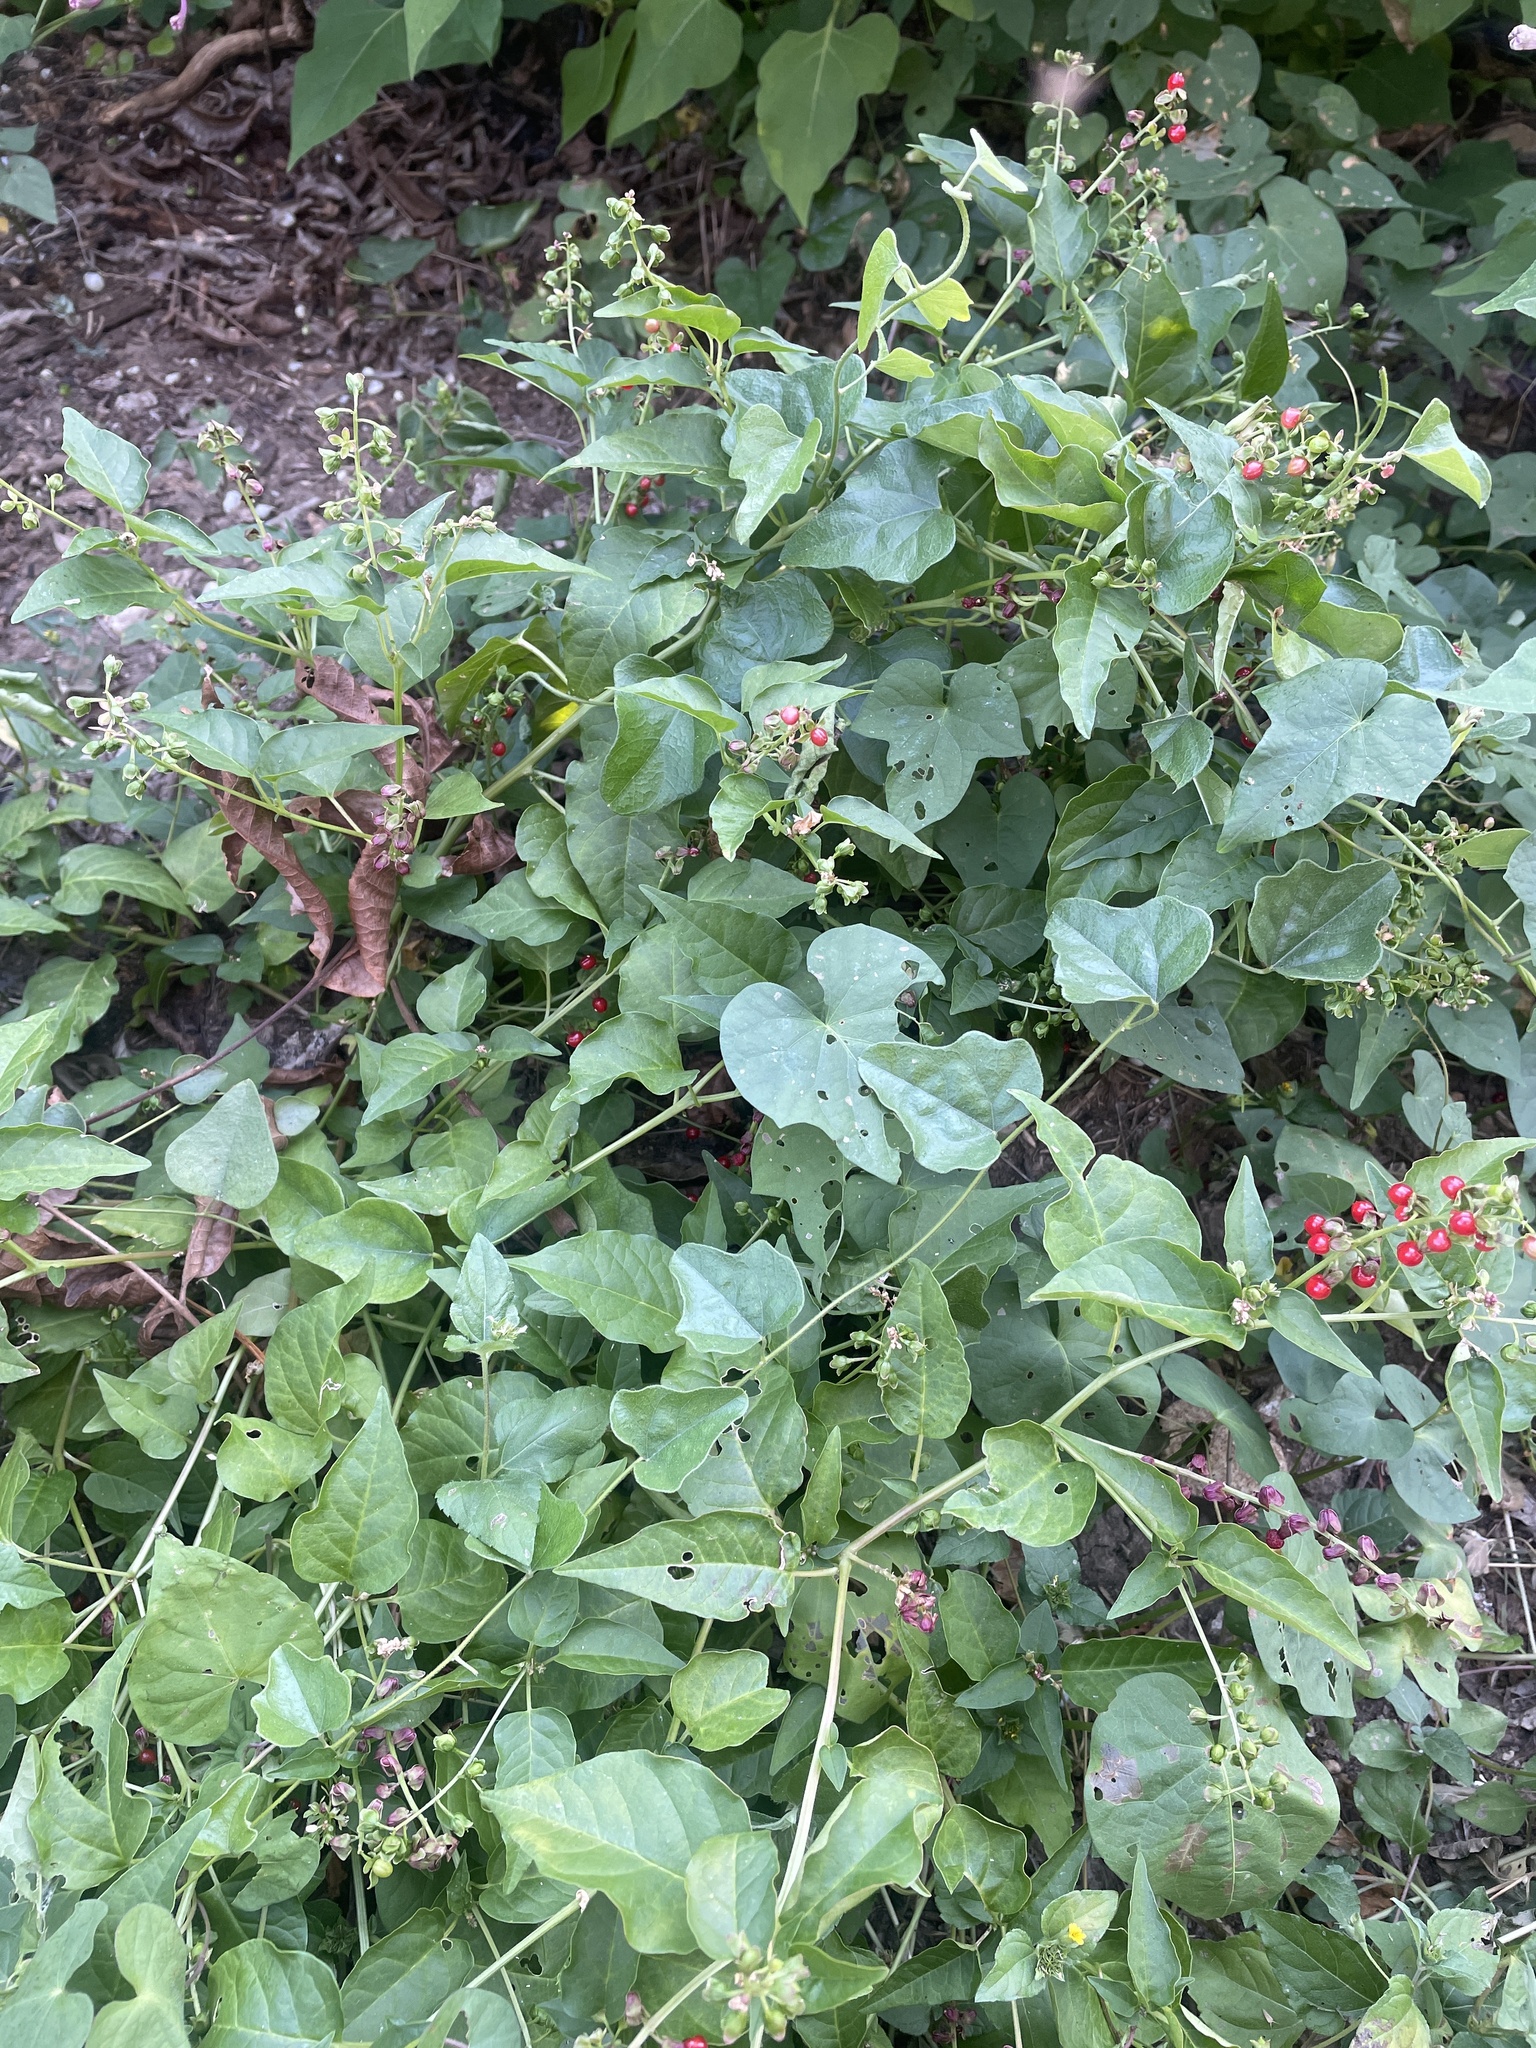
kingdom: Plantae
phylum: Tracheophyta
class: Magnoliopsida
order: Caryophyllales
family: Phytolaccaceae
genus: Rivina
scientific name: Rivina humilis
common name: Rougeplant
